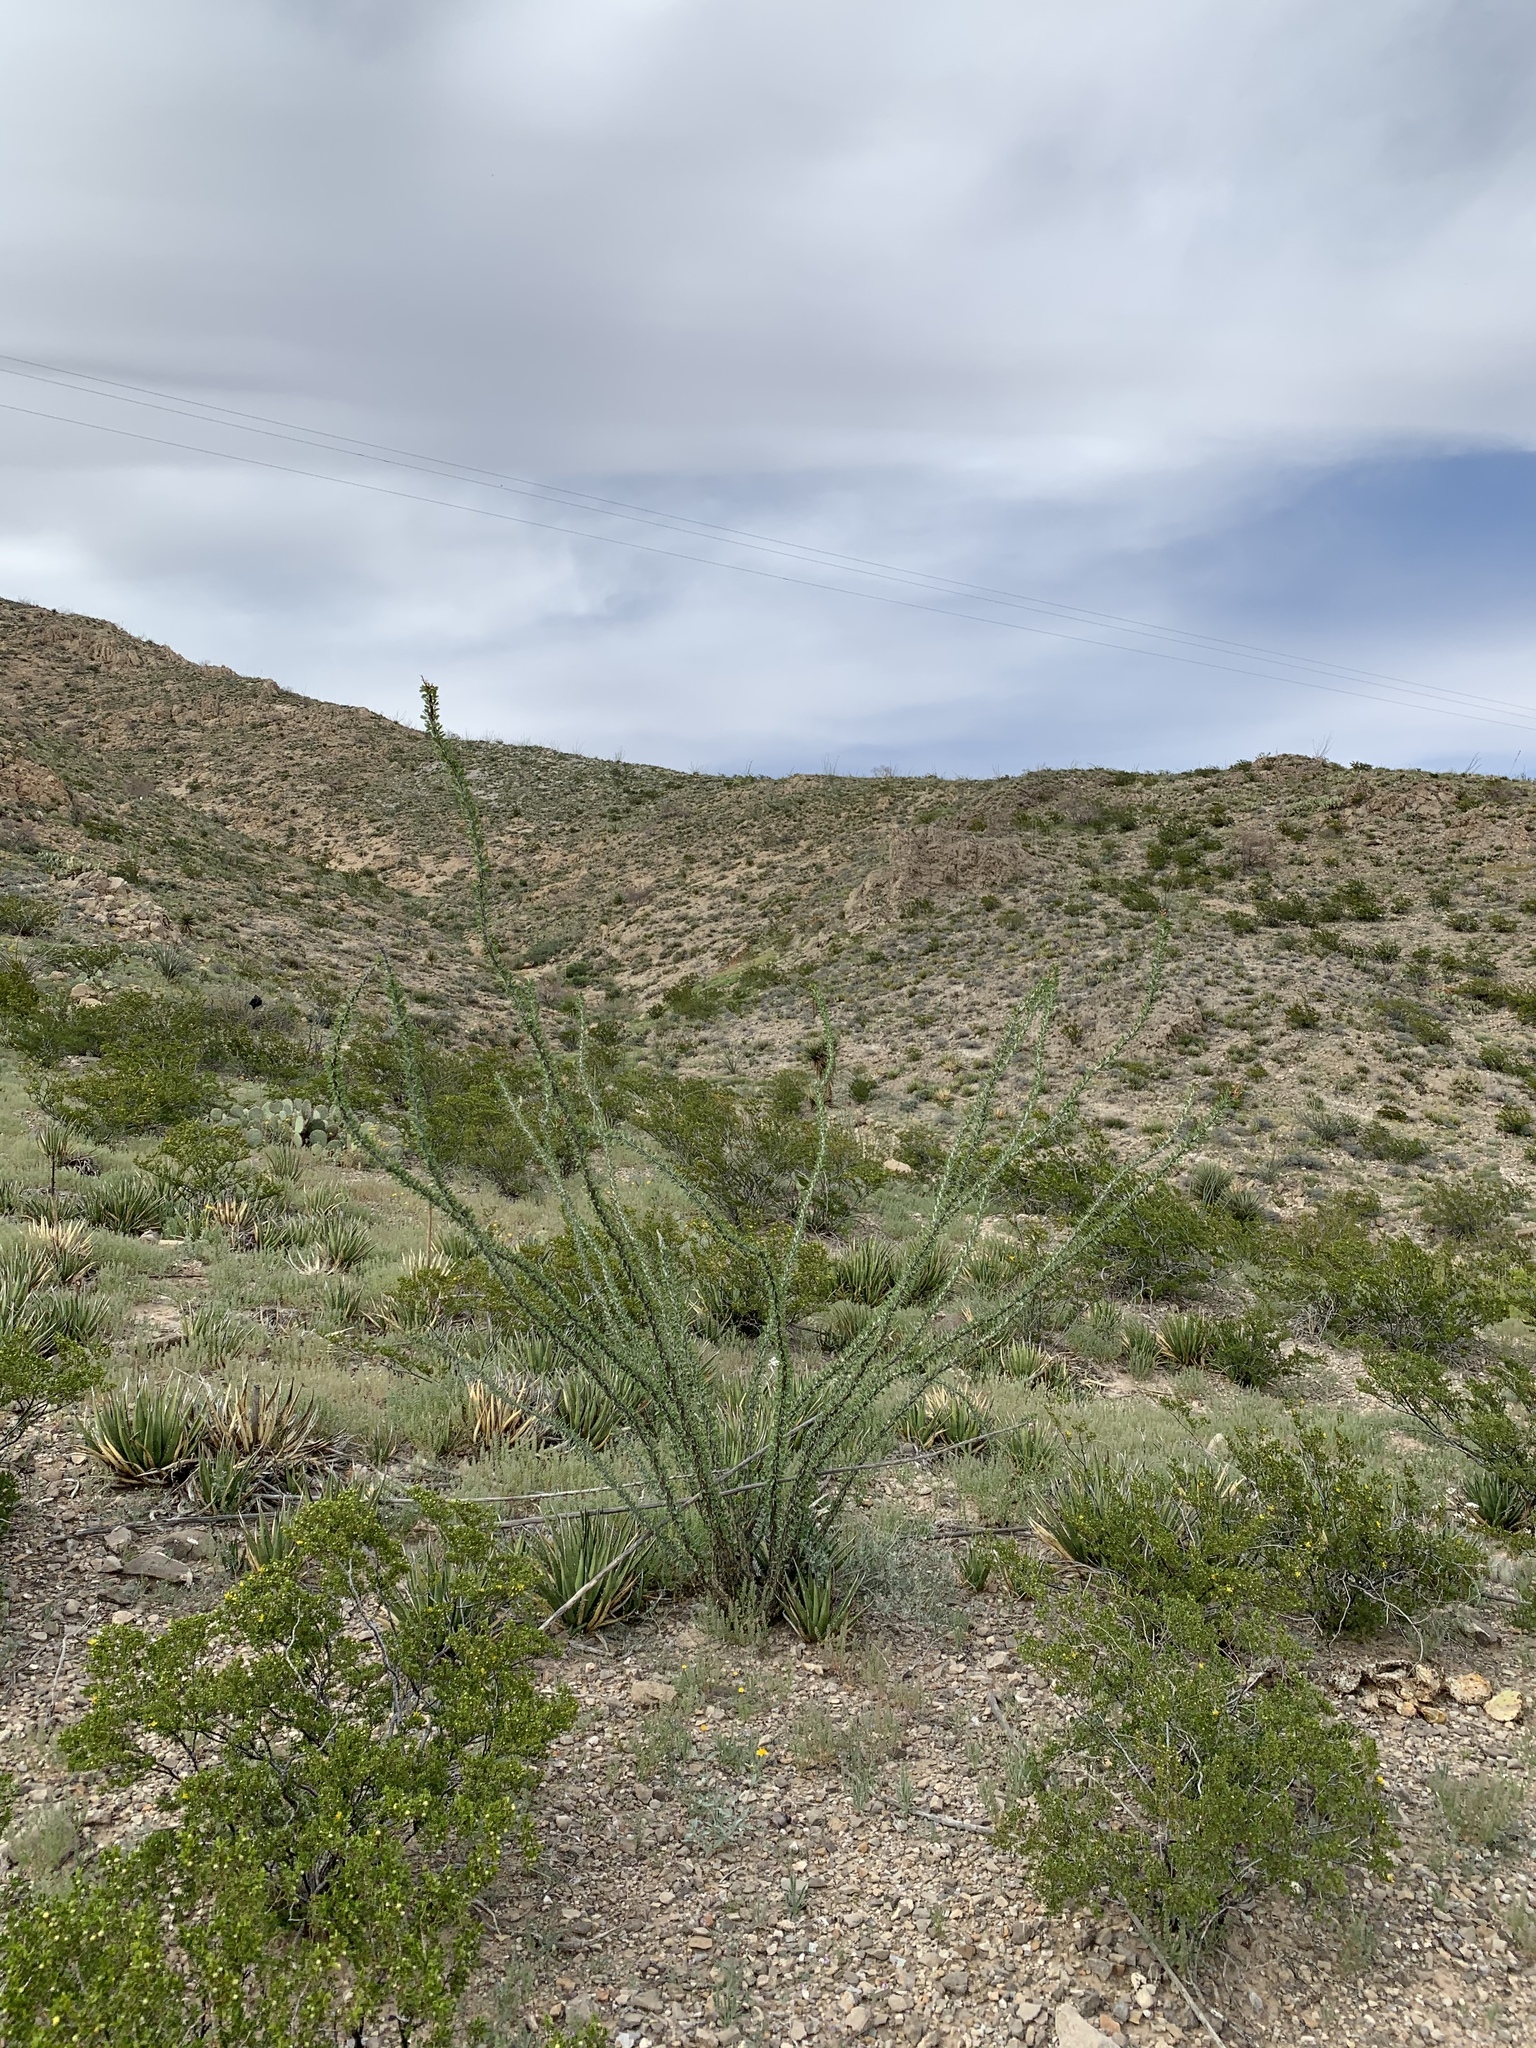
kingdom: Plantae
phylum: Tracheophyta
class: Magnoliopsida
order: Ericales
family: Fouquieriaceae
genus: Fouquieria
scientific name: Fouquieria splendens
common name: Vine-cactus
